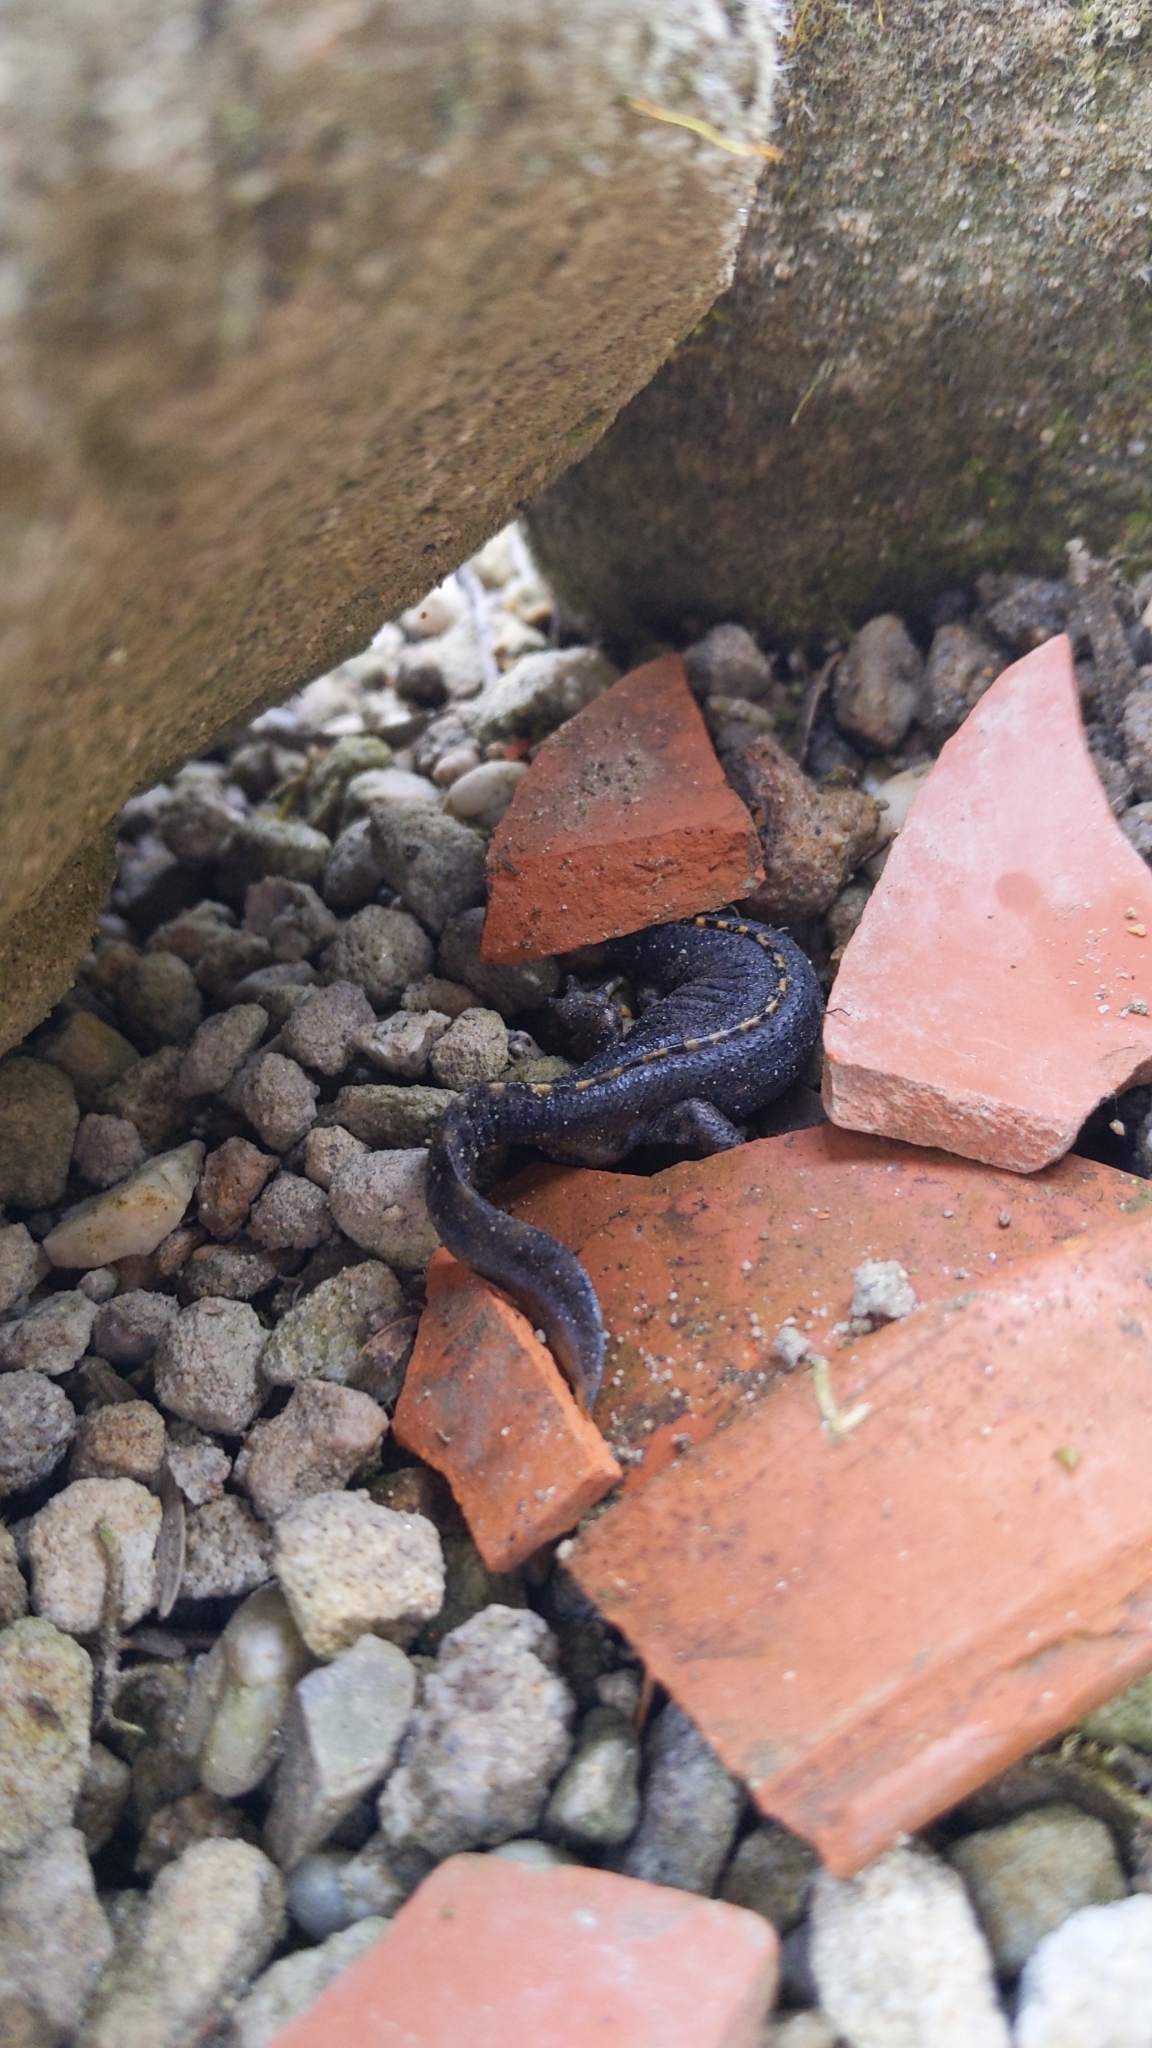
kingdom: Animalia
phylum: Chordata
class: Amphibia
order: Caudata
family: Salamandridae
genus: Ichthyosaura
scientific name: Ichthyosaura alpestris
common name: Alpine newt
